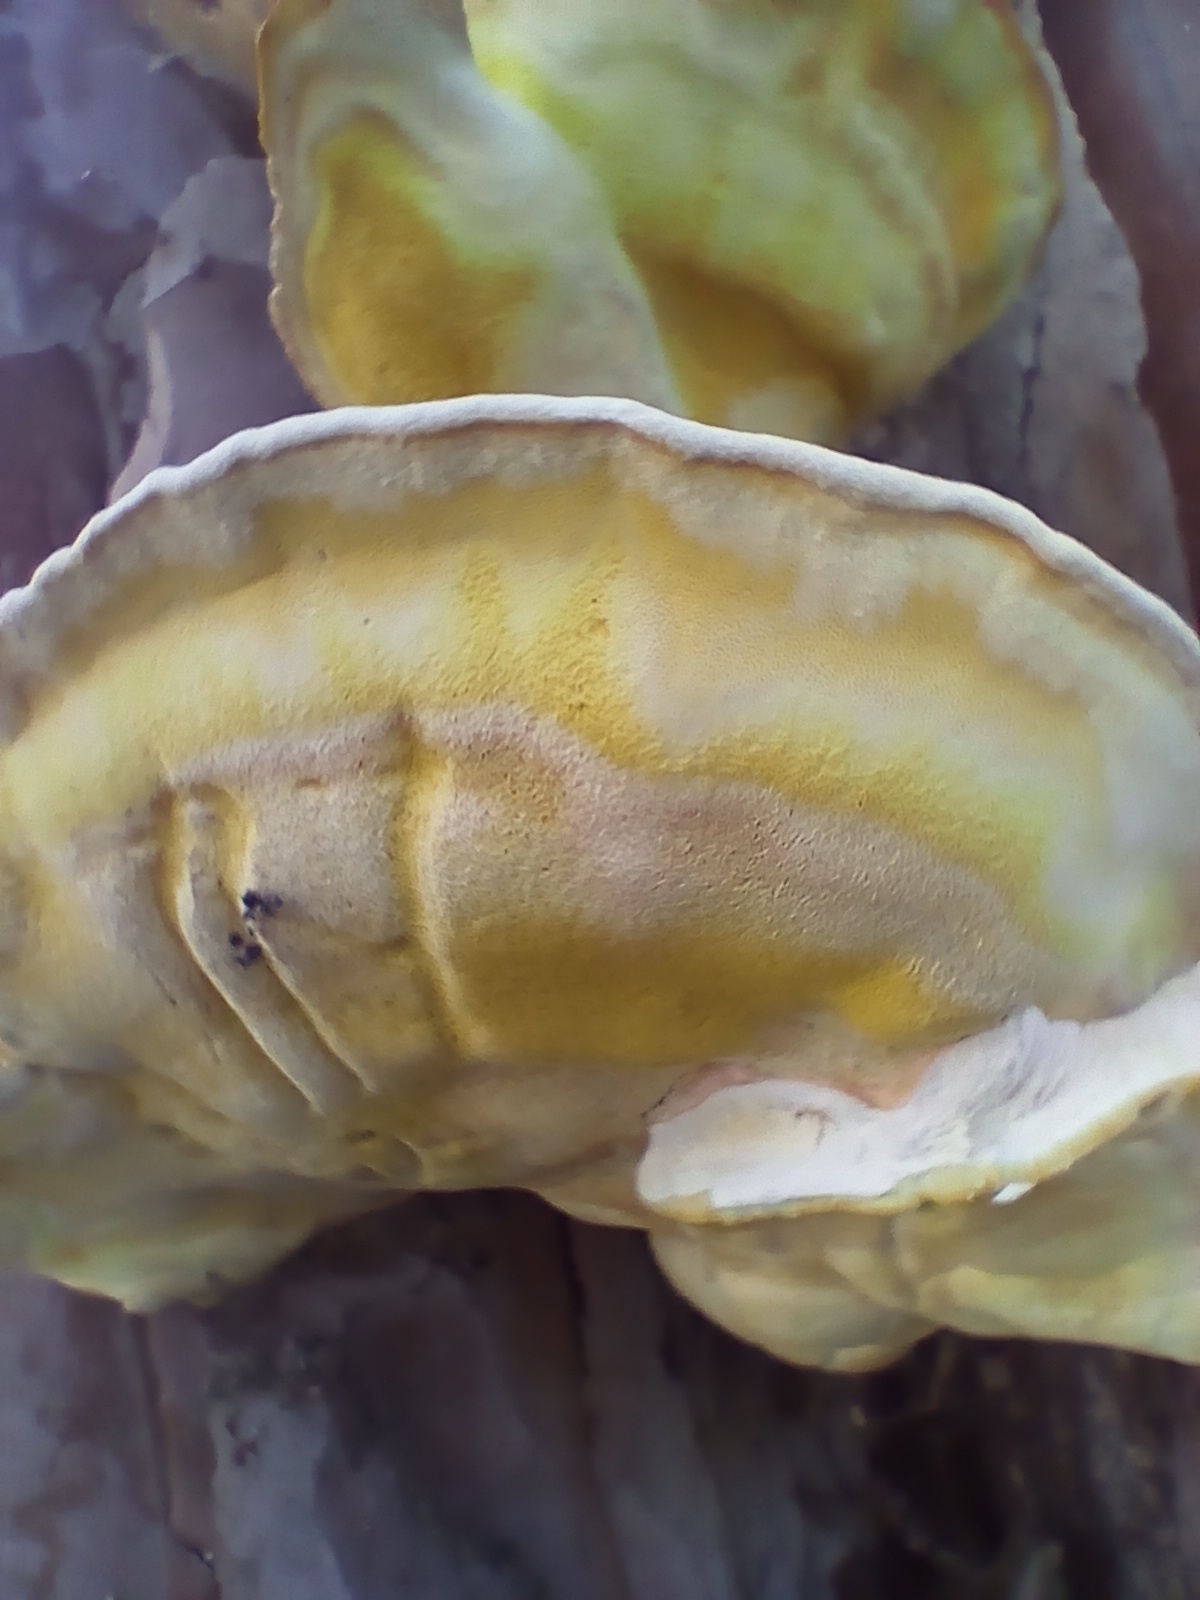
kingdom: Fungi
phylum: Basidiomycota
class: Agaricomycetes
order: Polyporales
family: Laetiporaceae
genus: Laetiporus
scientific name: Laetiporus gilbertsonii
